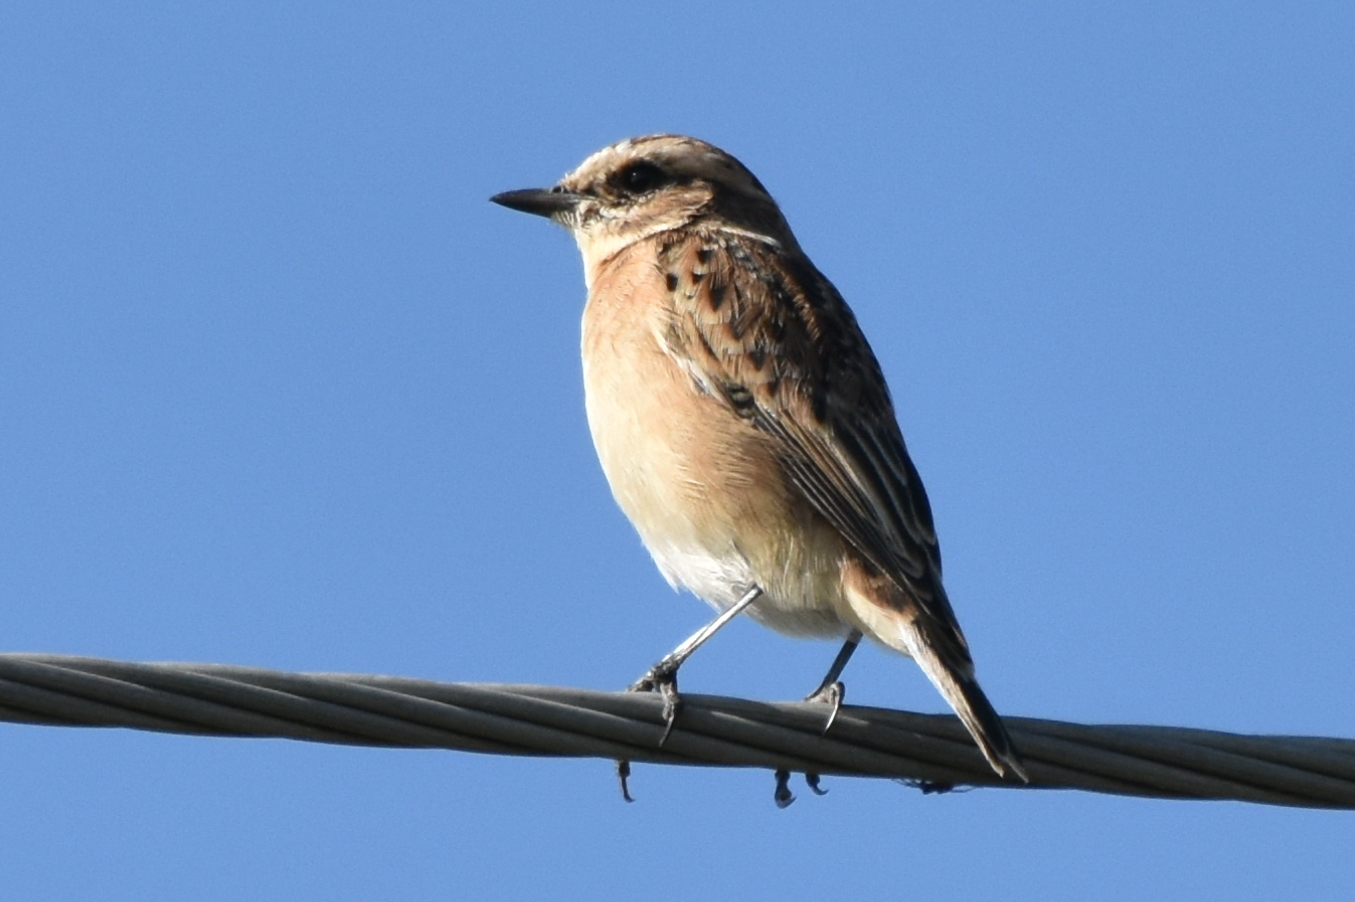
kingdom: Animalia
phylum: Chordata
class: Aves
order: Passeriformes
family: Muscicapidae
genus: Saxicola
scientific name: Saxicola rubetra
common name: Whinchat
